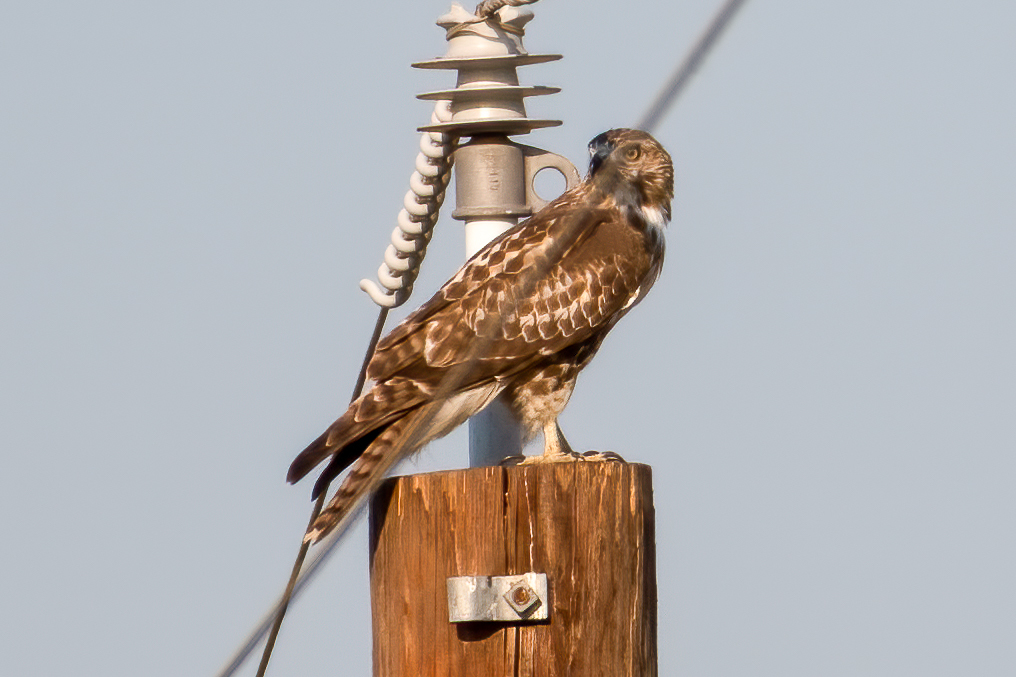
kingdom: Animalia
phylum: Chordata
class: Aves
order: Accipitriformes
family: Accipitridae
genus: Buteo
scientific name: Buteo jamaicensis
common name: Red-tailed hawk
